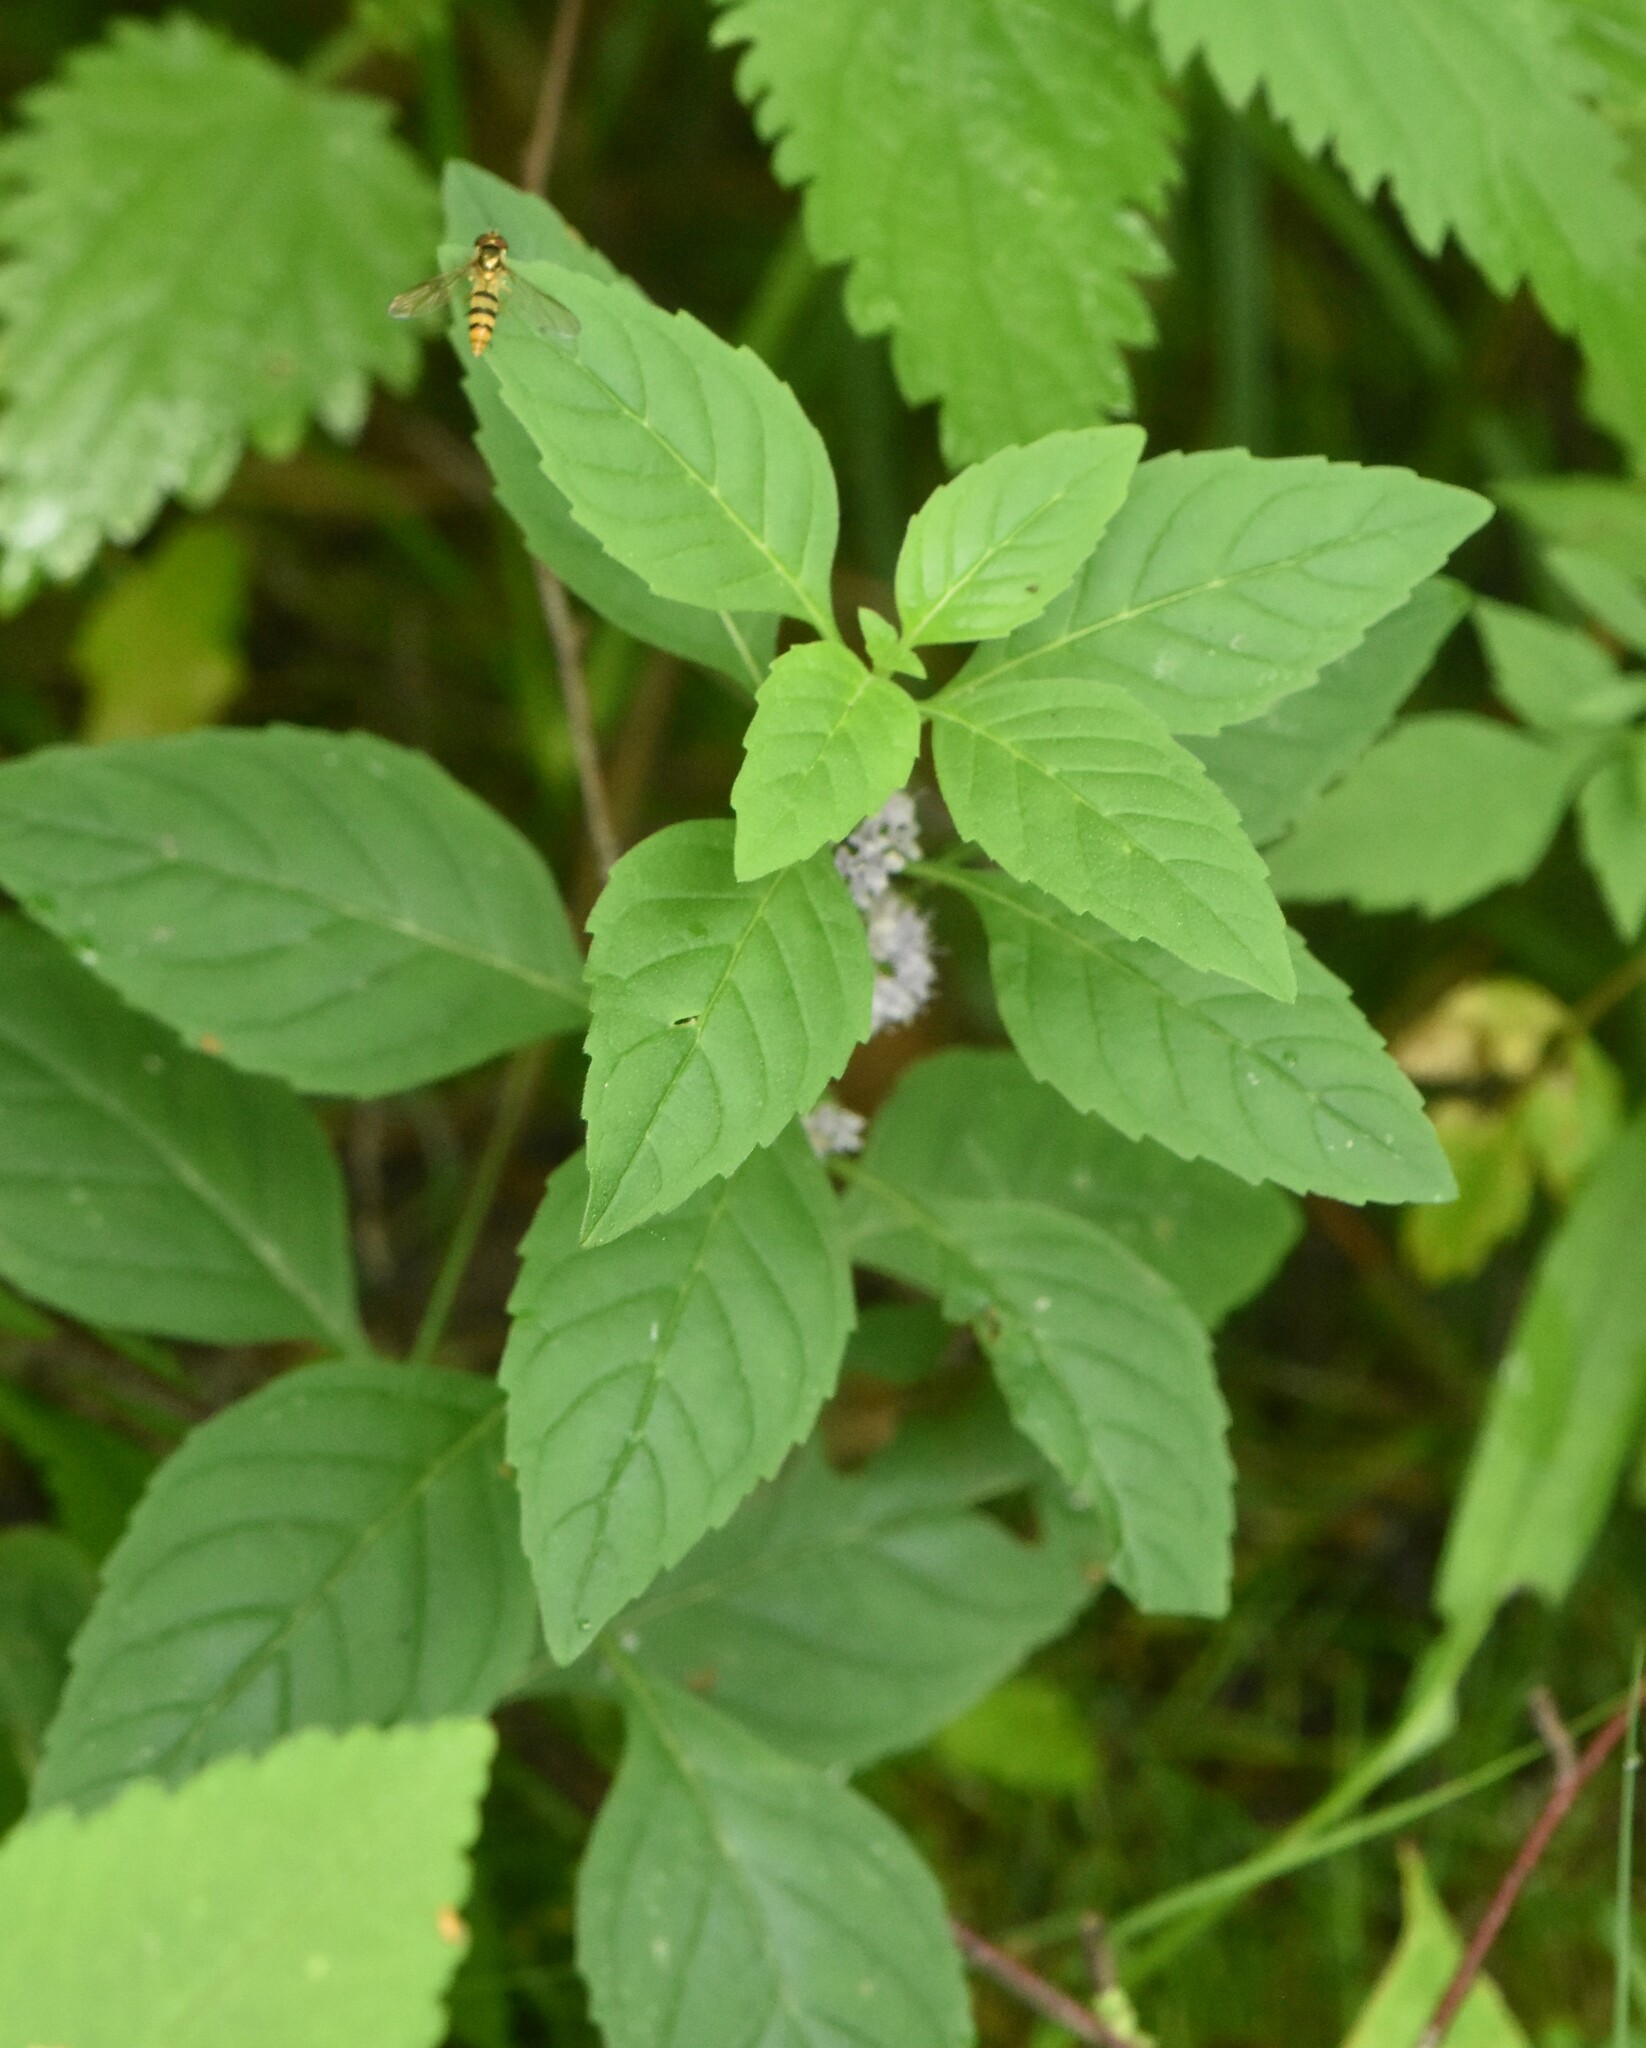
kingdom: Plantae
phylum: Tracheophyta
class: Magnoliopsida
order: Lamiales
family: Lamiaceae
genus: Mentha
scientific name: Mentha arvensis
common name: Corn mint
